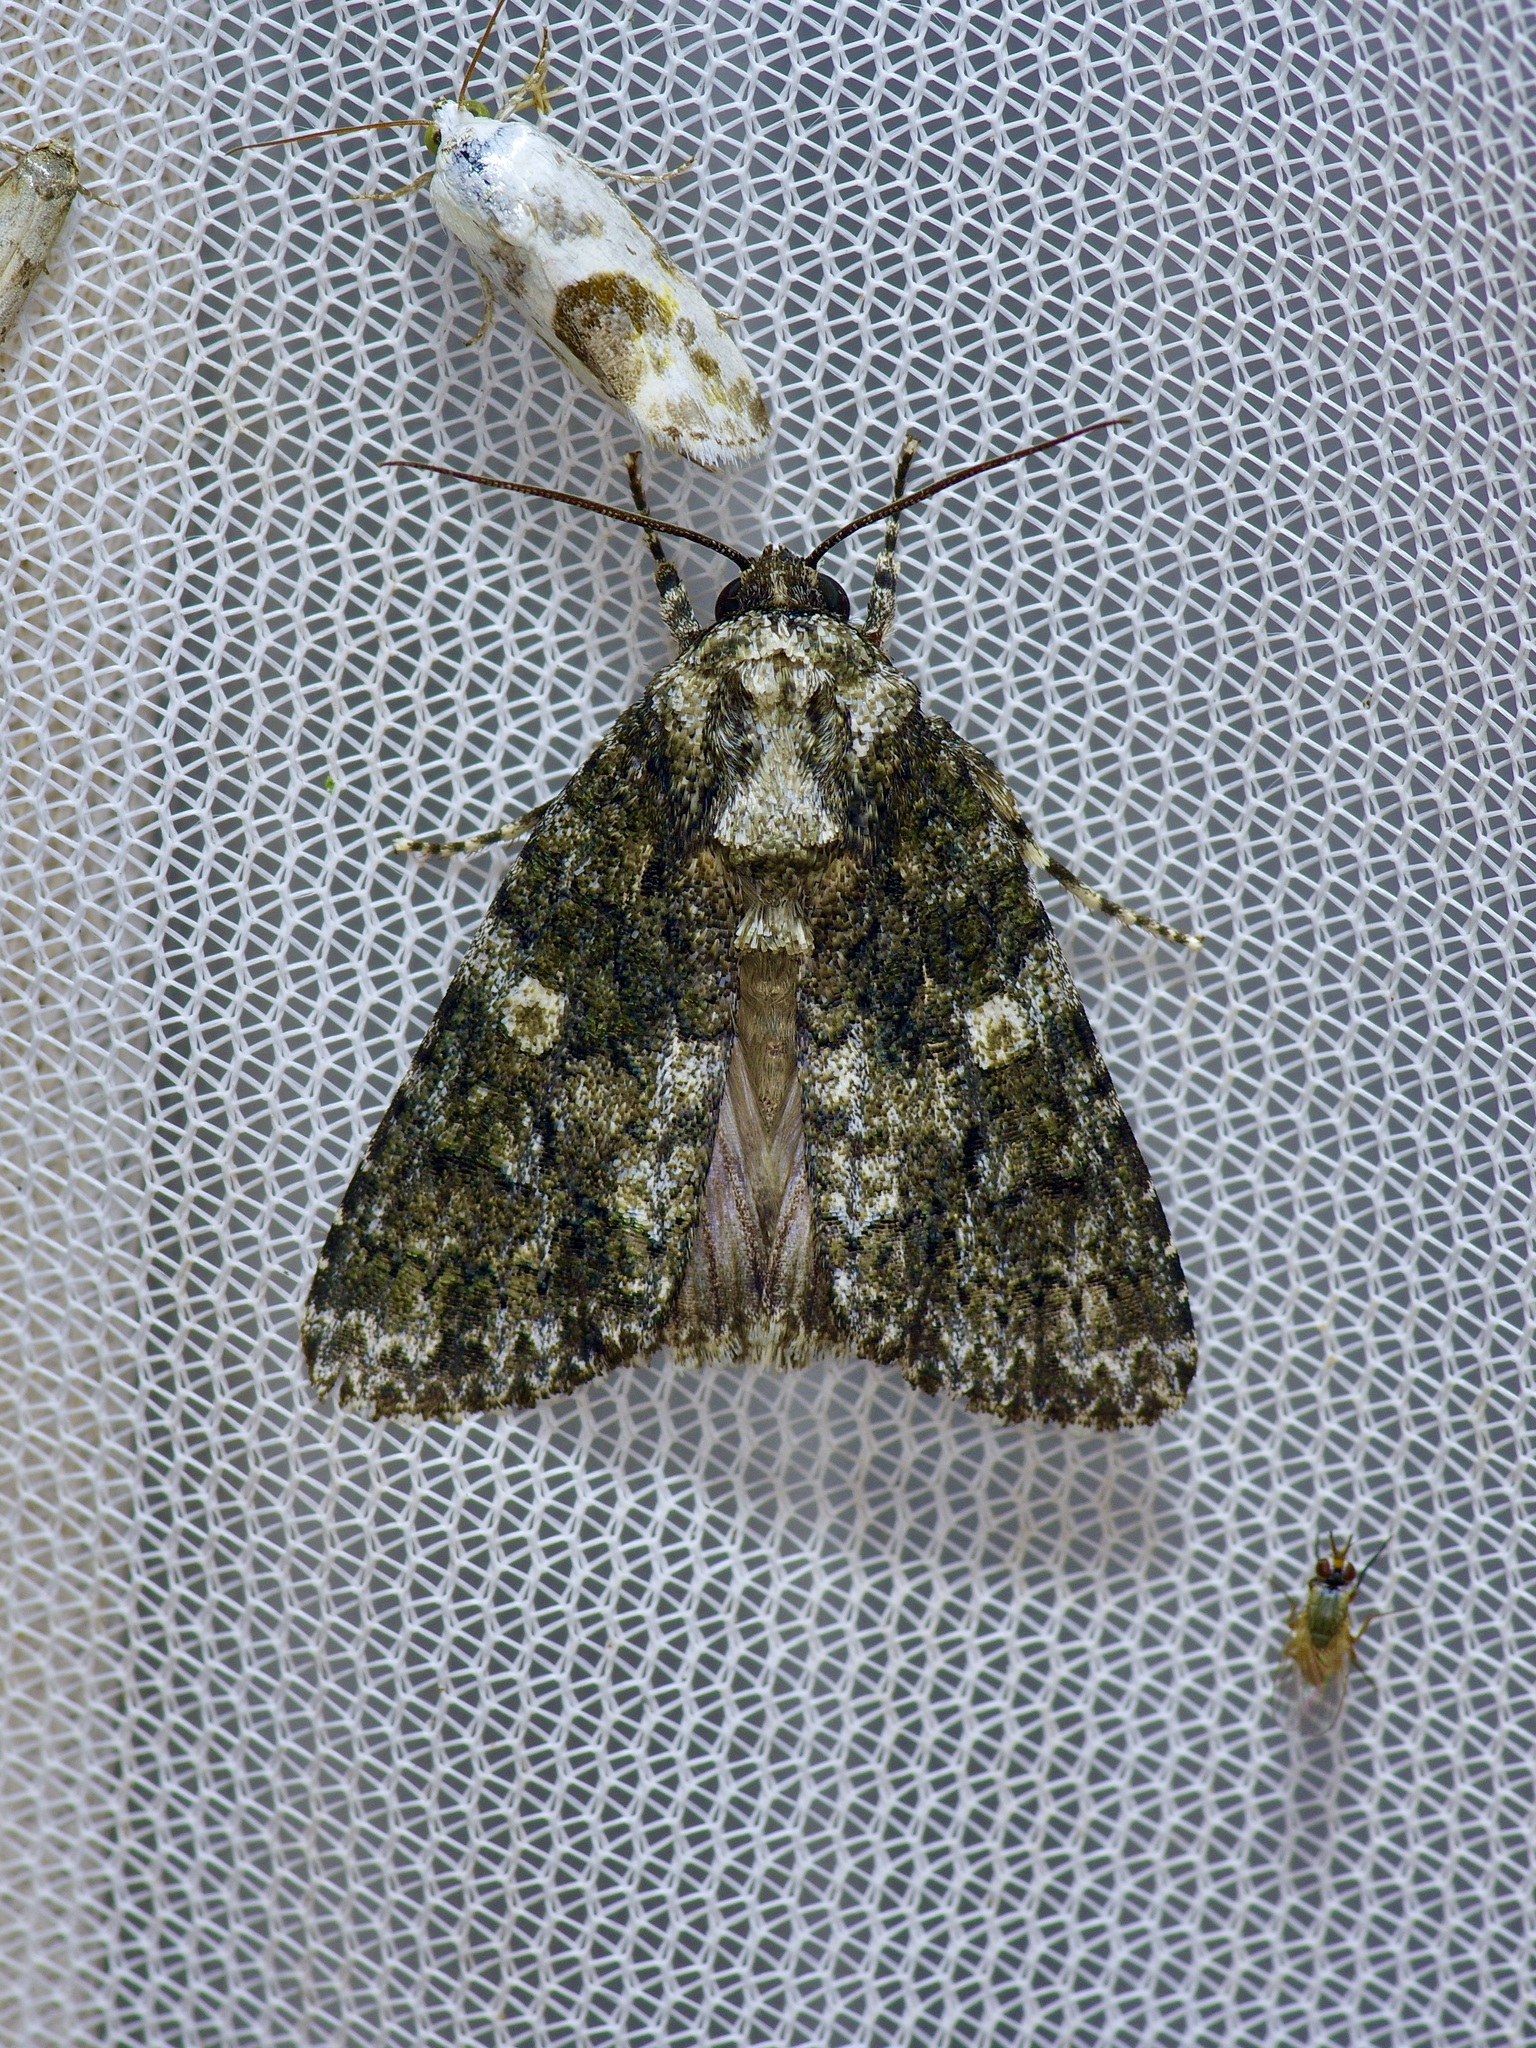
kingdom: Animalia
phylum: Arthropoda
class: Insecta
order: Lepidoptera
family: Noctuidae
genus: Acronicta
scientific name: Acronicta afflicta
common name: Afflicted dagger moth
